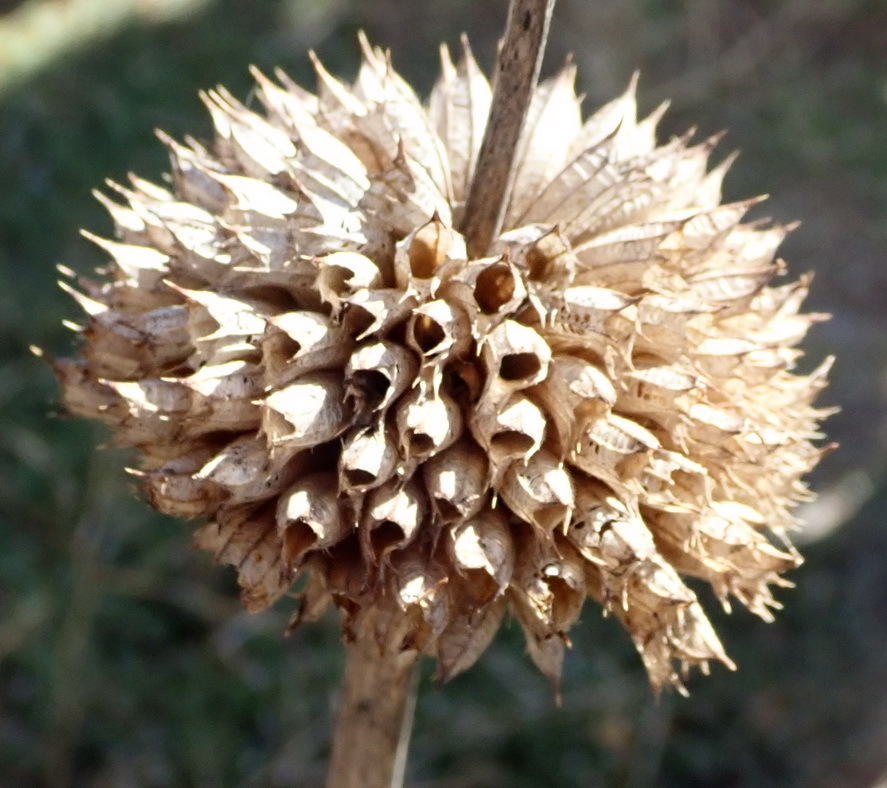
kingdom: Plantae
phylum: Tracheophyta
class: Magnoliopsida
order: Lamiales
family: Lamiaceae
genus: Leonotis
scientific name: Leonotis ocymifolia
